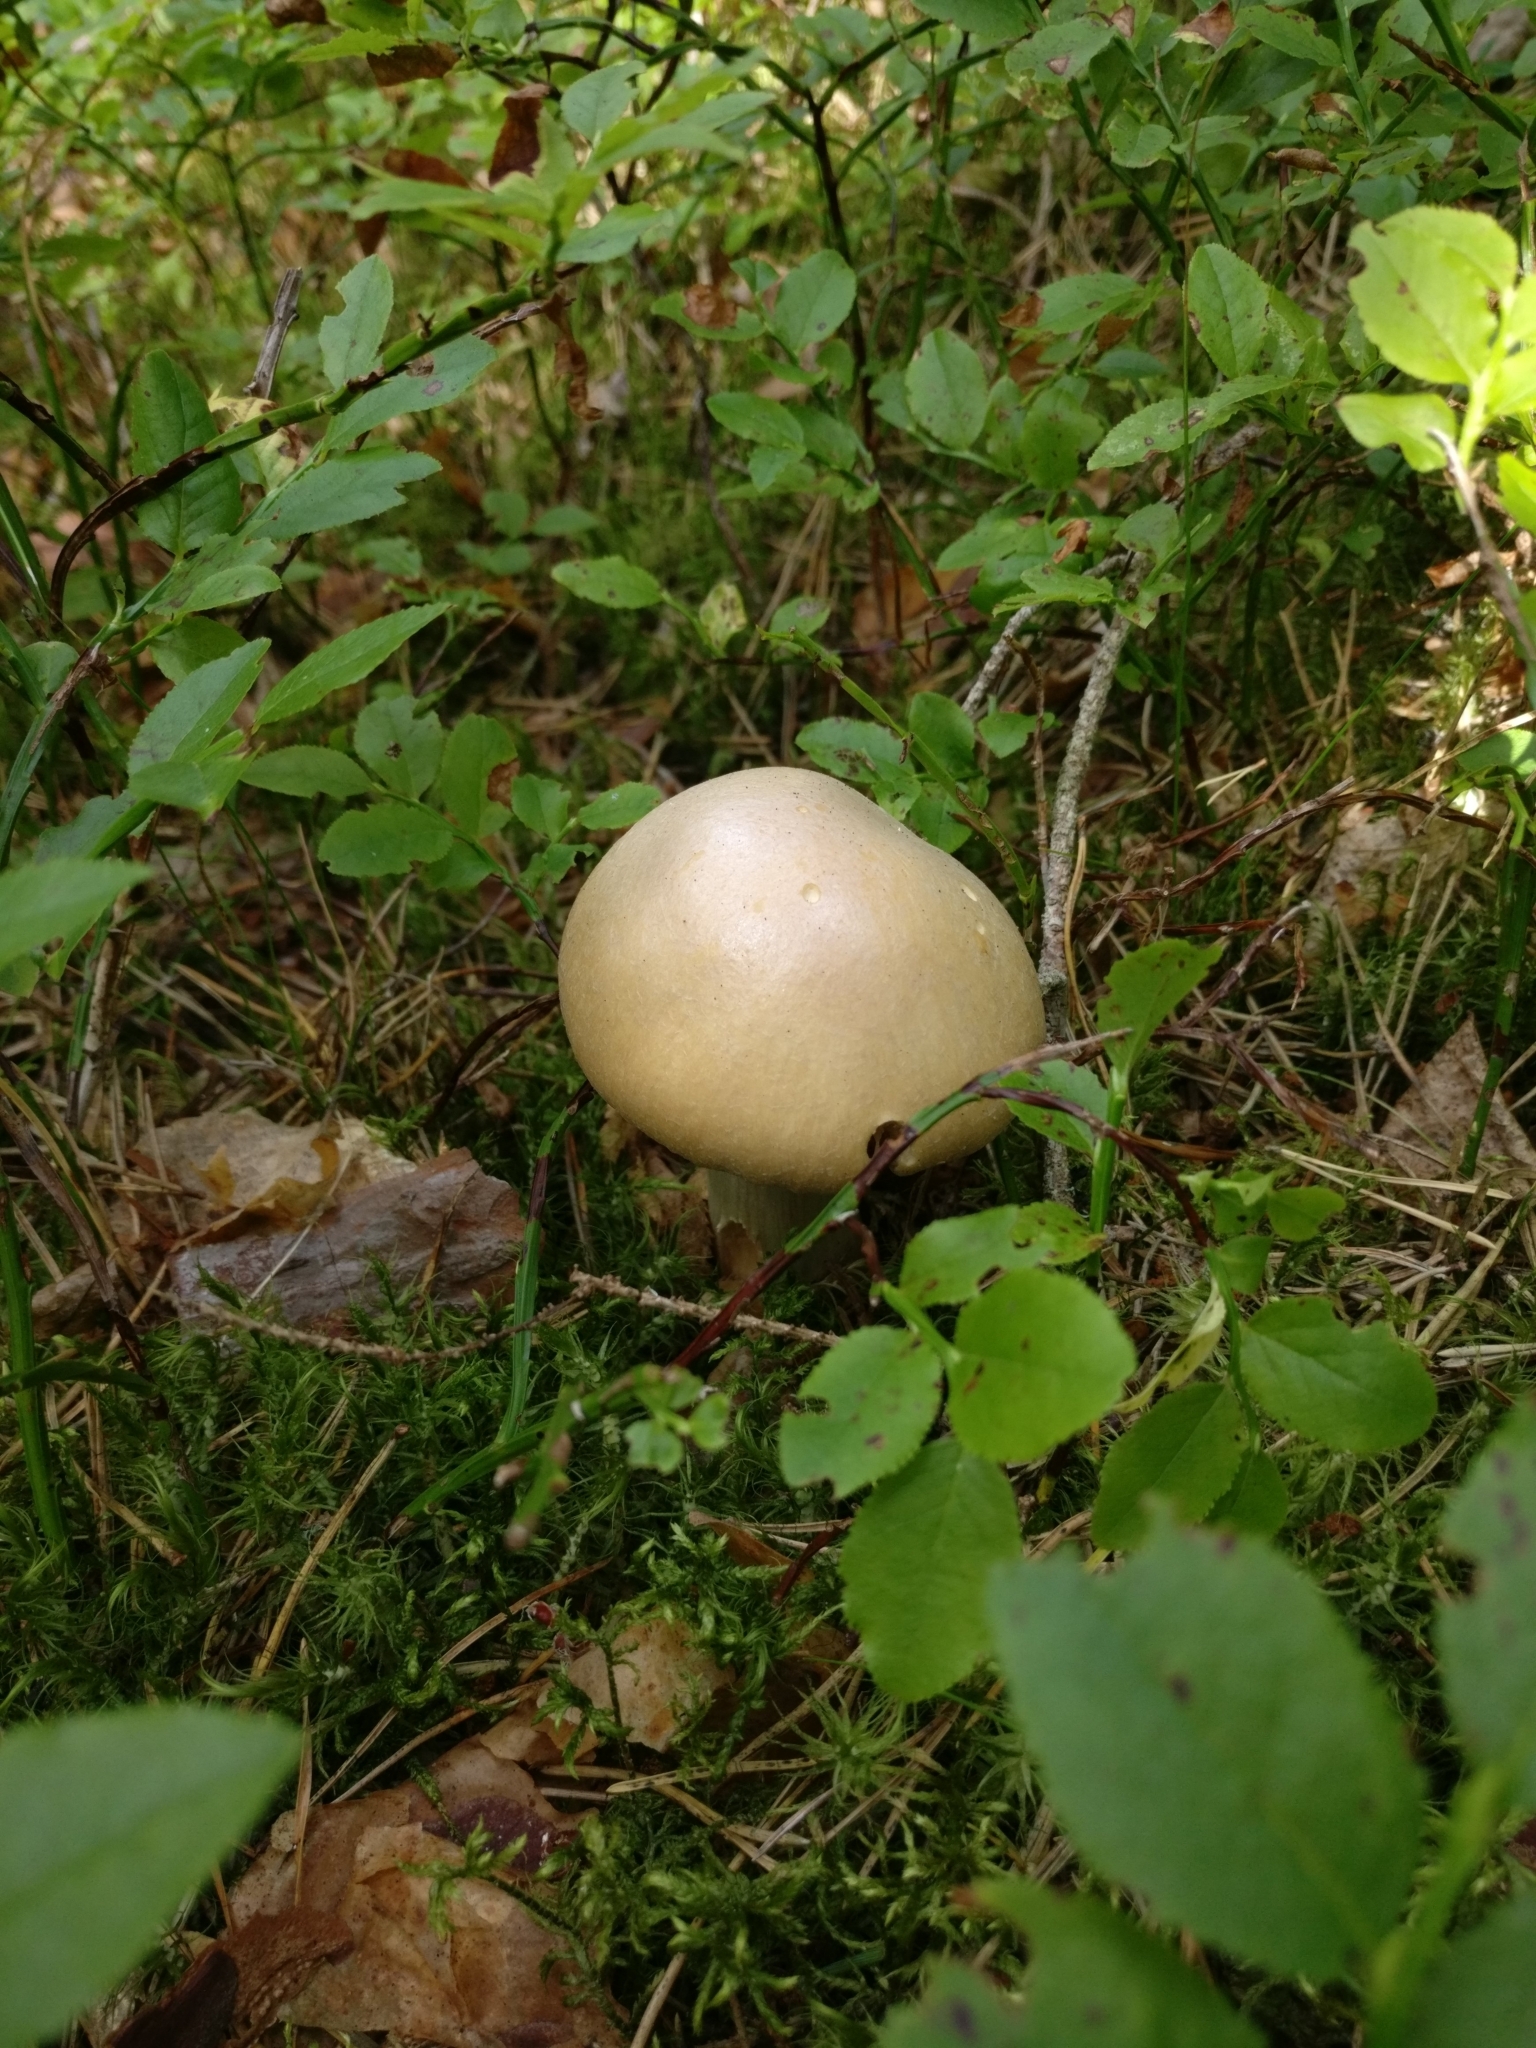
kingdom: Fungi
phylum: Basidiomycota
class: Agaricomycetes
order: Agaricales
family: Cortinariaceae
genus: Cortinarius
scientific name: Cortinarius caperatus
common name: The gypsy
